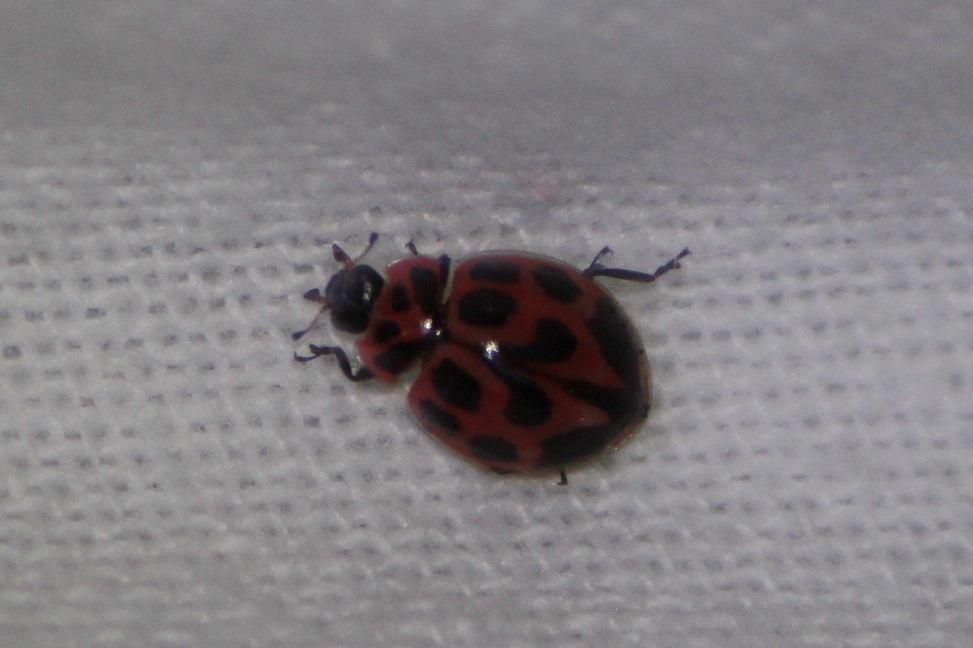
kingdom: Animalia
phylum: Arthropoda
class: Insecta
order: Coleoptera
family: Coccinellidae
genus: Neoharmonia
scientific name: Neoharmonia venusta
